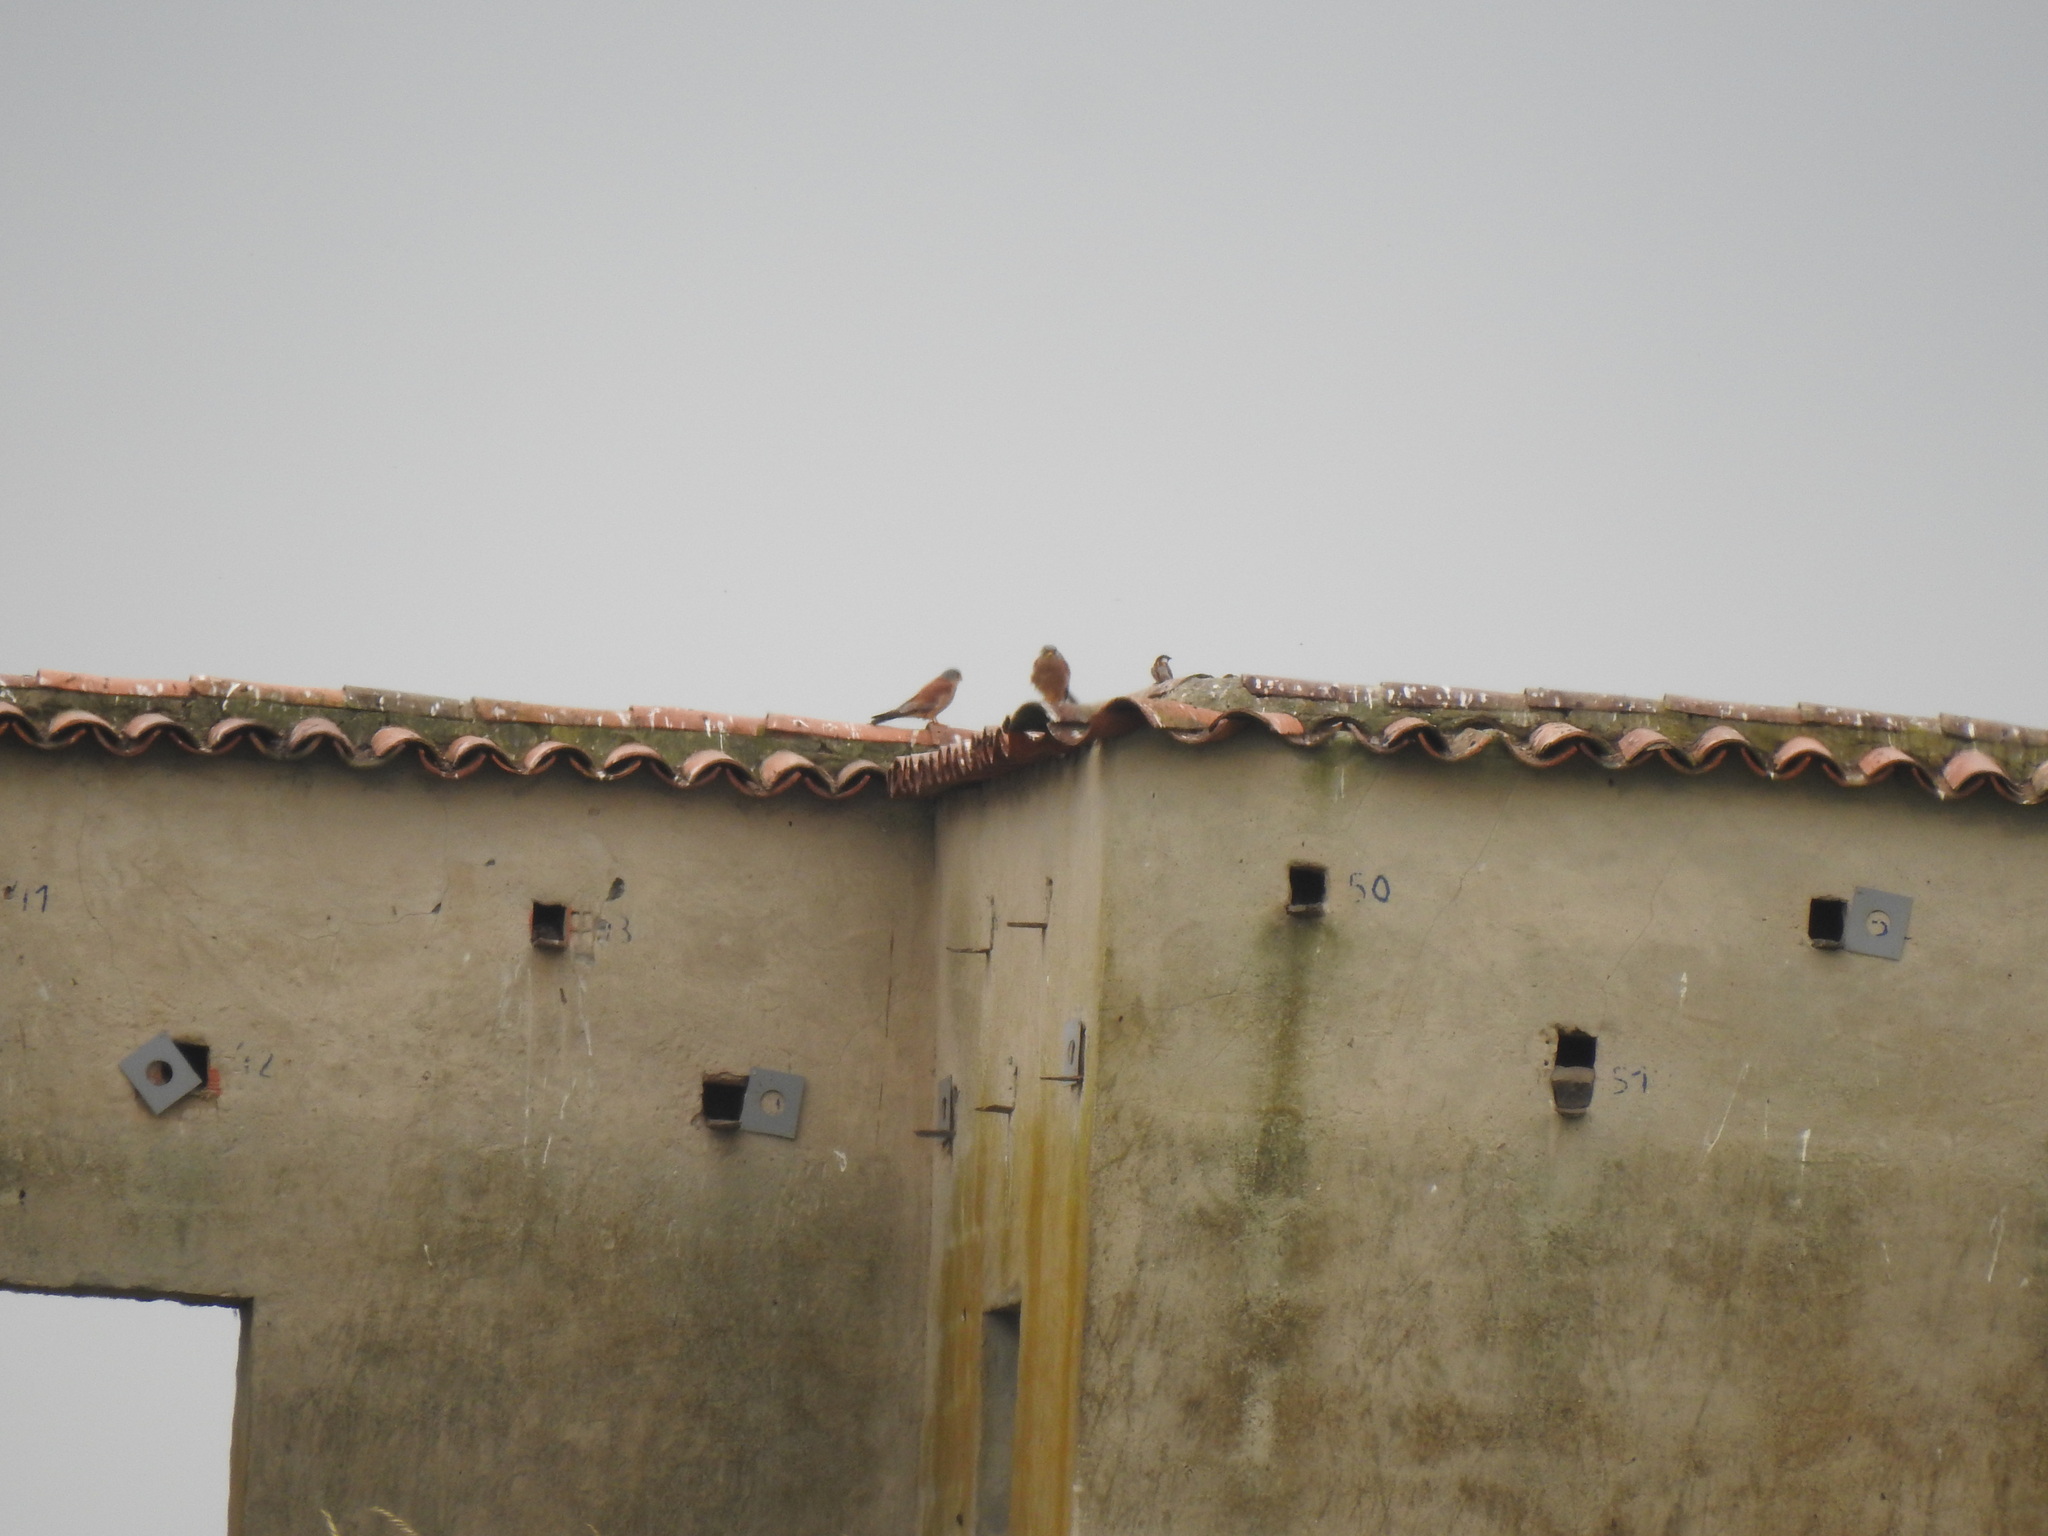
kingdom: Animalia
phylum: Chordata
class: Aves
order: Falconiformes
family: Falconidae
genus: Falco
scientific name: Falco naumanni
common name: Lesser kestrel
